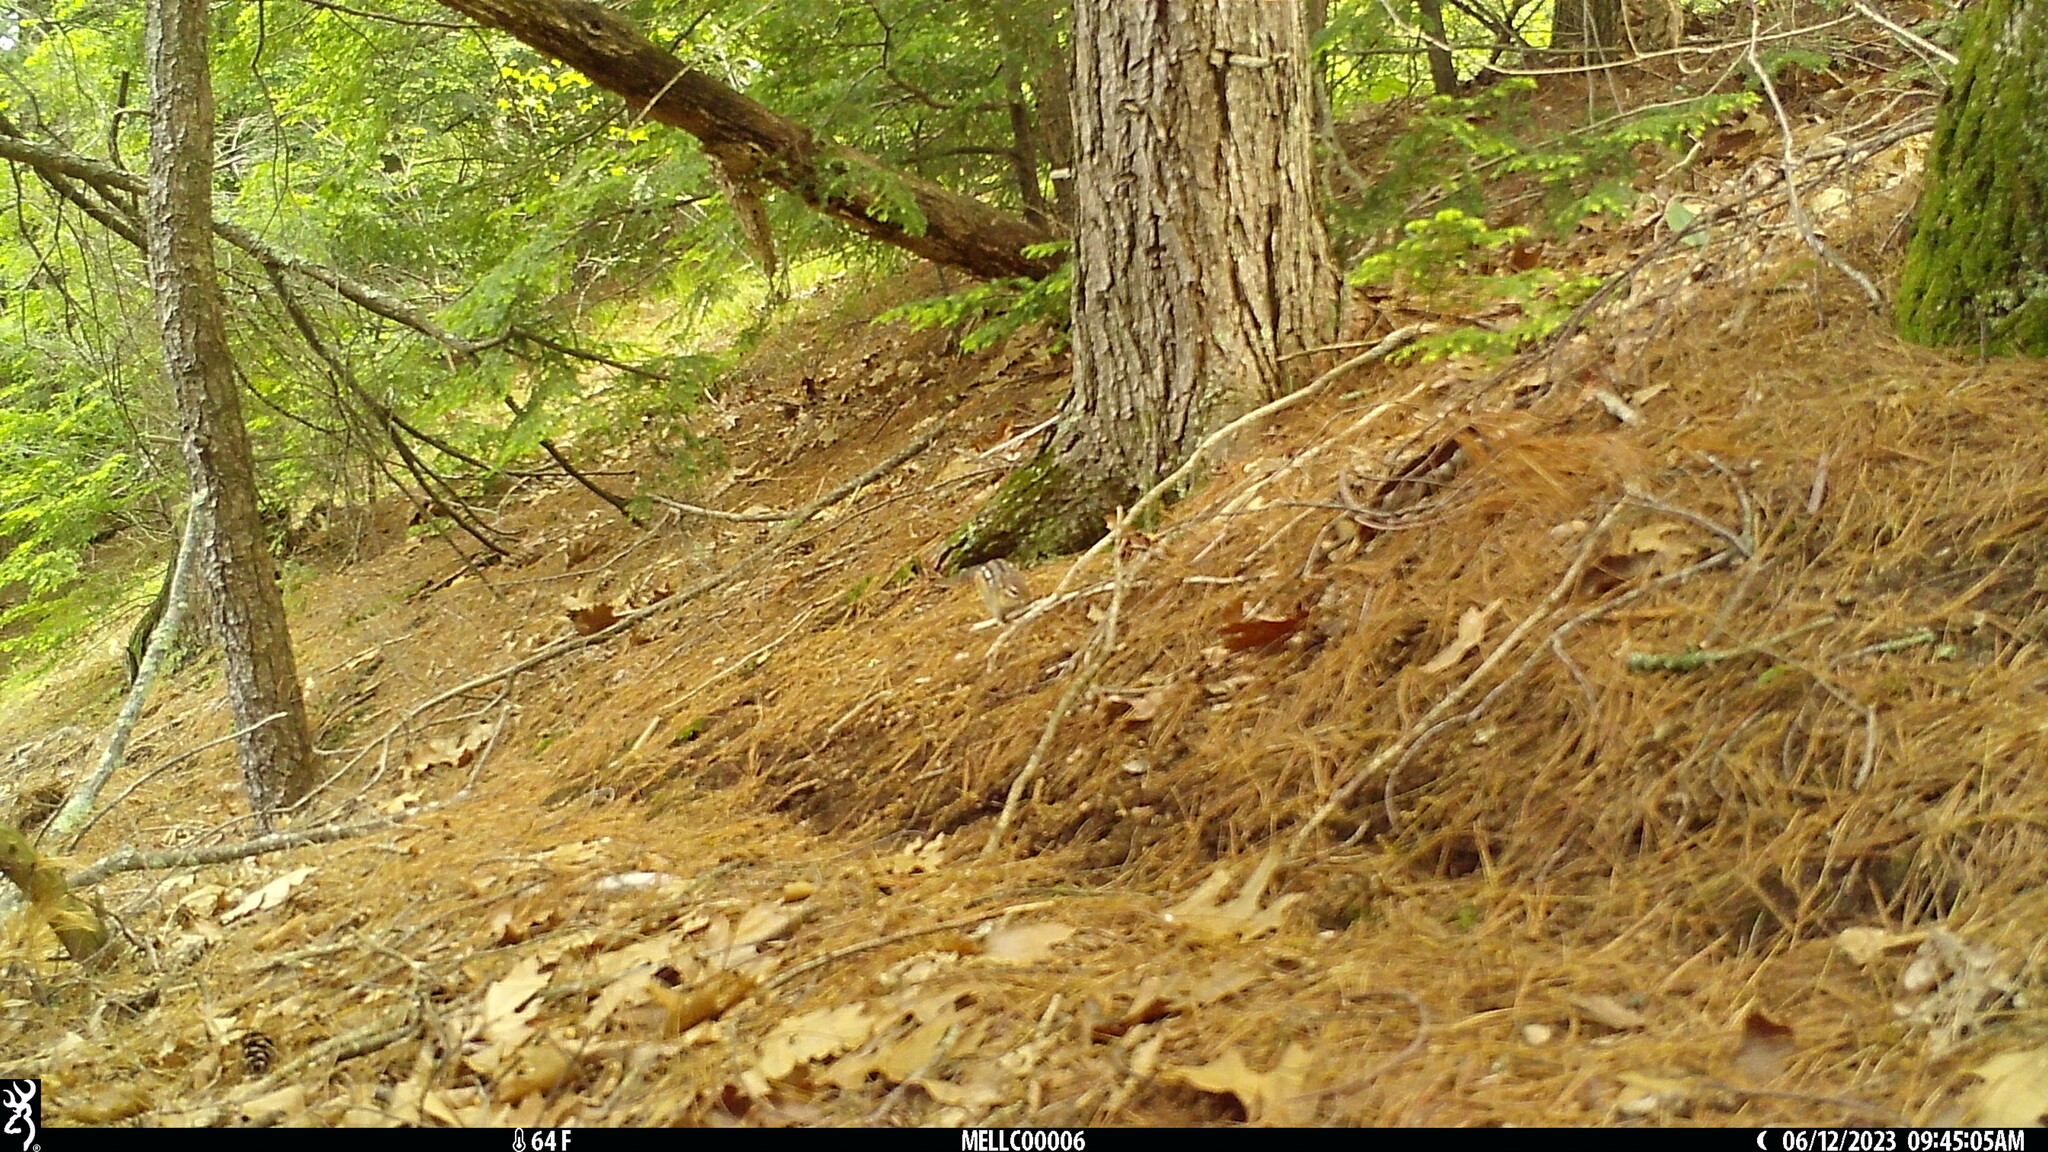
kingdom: Animalia
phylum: Chordata
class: Mammalia
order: Rodentia
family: Sciuridae
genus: Tamias
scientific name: Tamias striatus
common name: Eastern chipmunk
